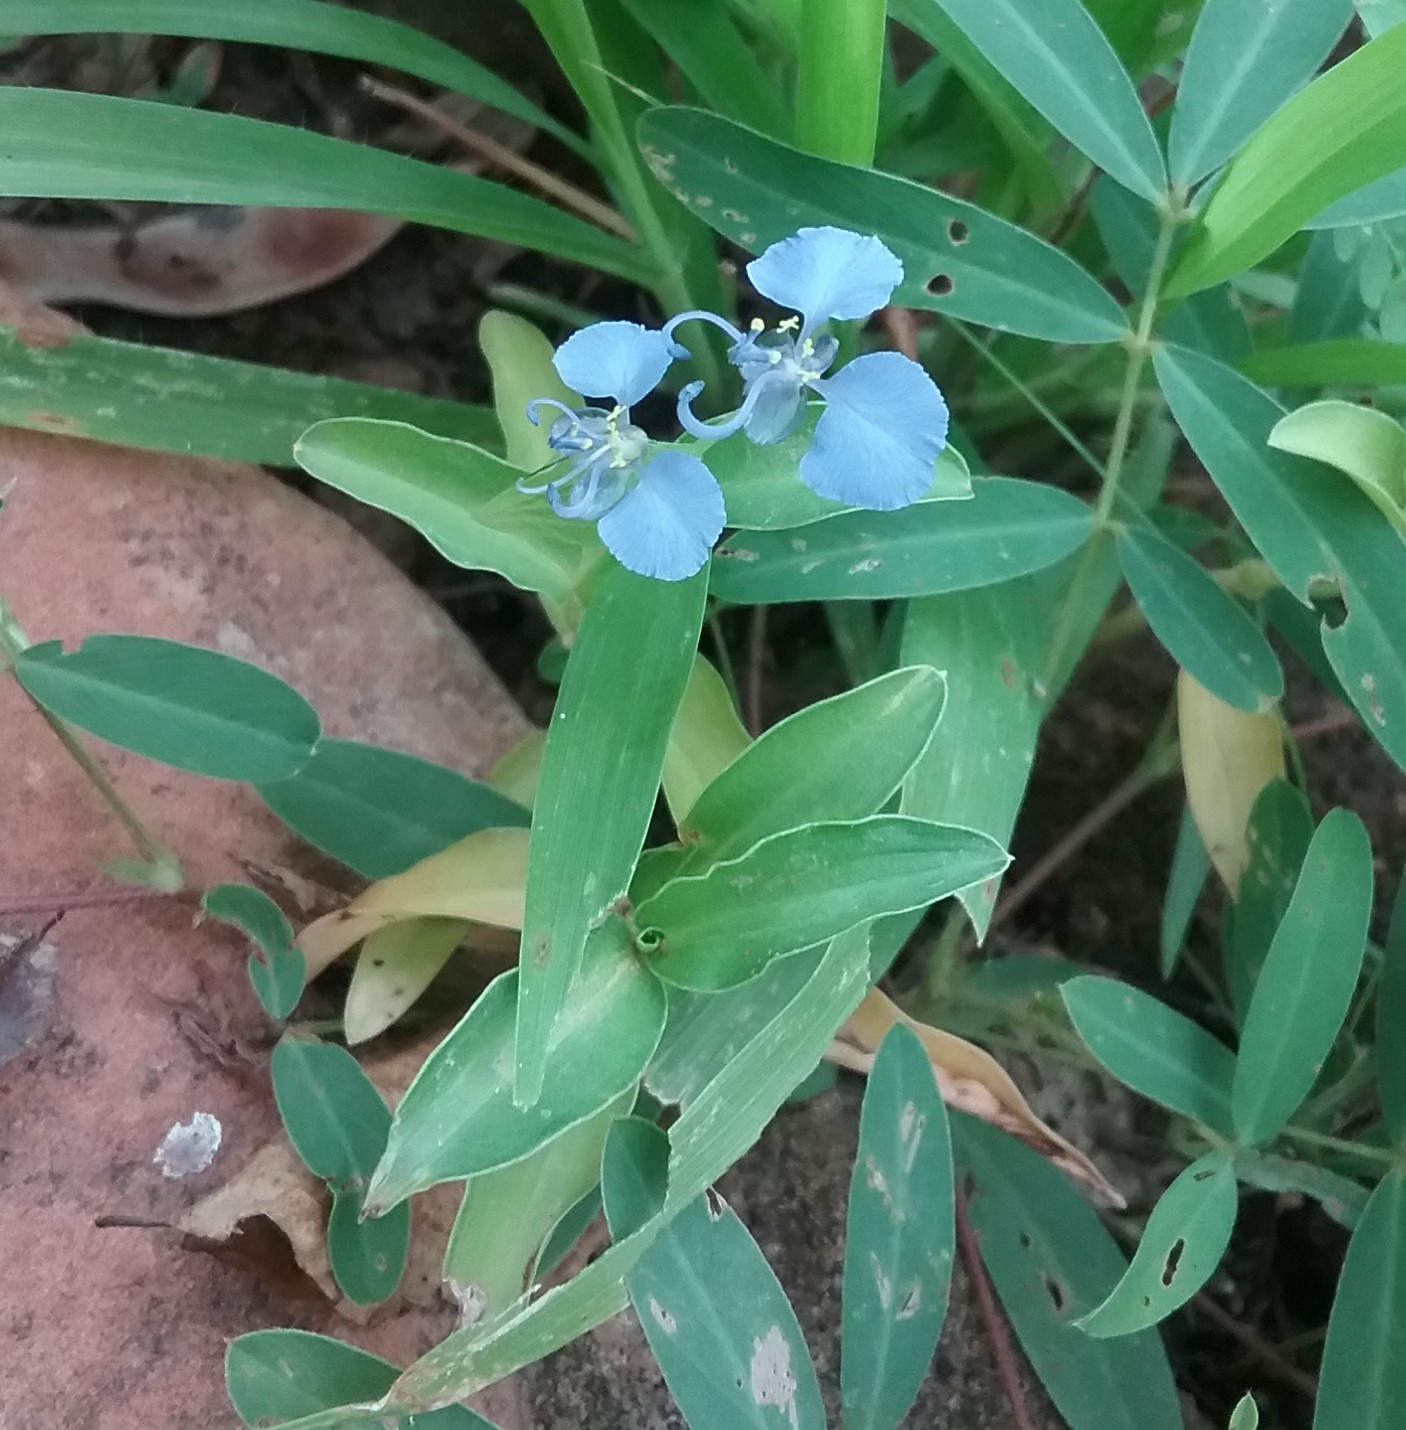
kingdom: Plantae
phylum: Tracheophyta
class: Liliopsida
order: Commelinales
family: Commelinaceae
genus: Commelina
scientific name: Commelina forskaolii
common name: Rat's ear
